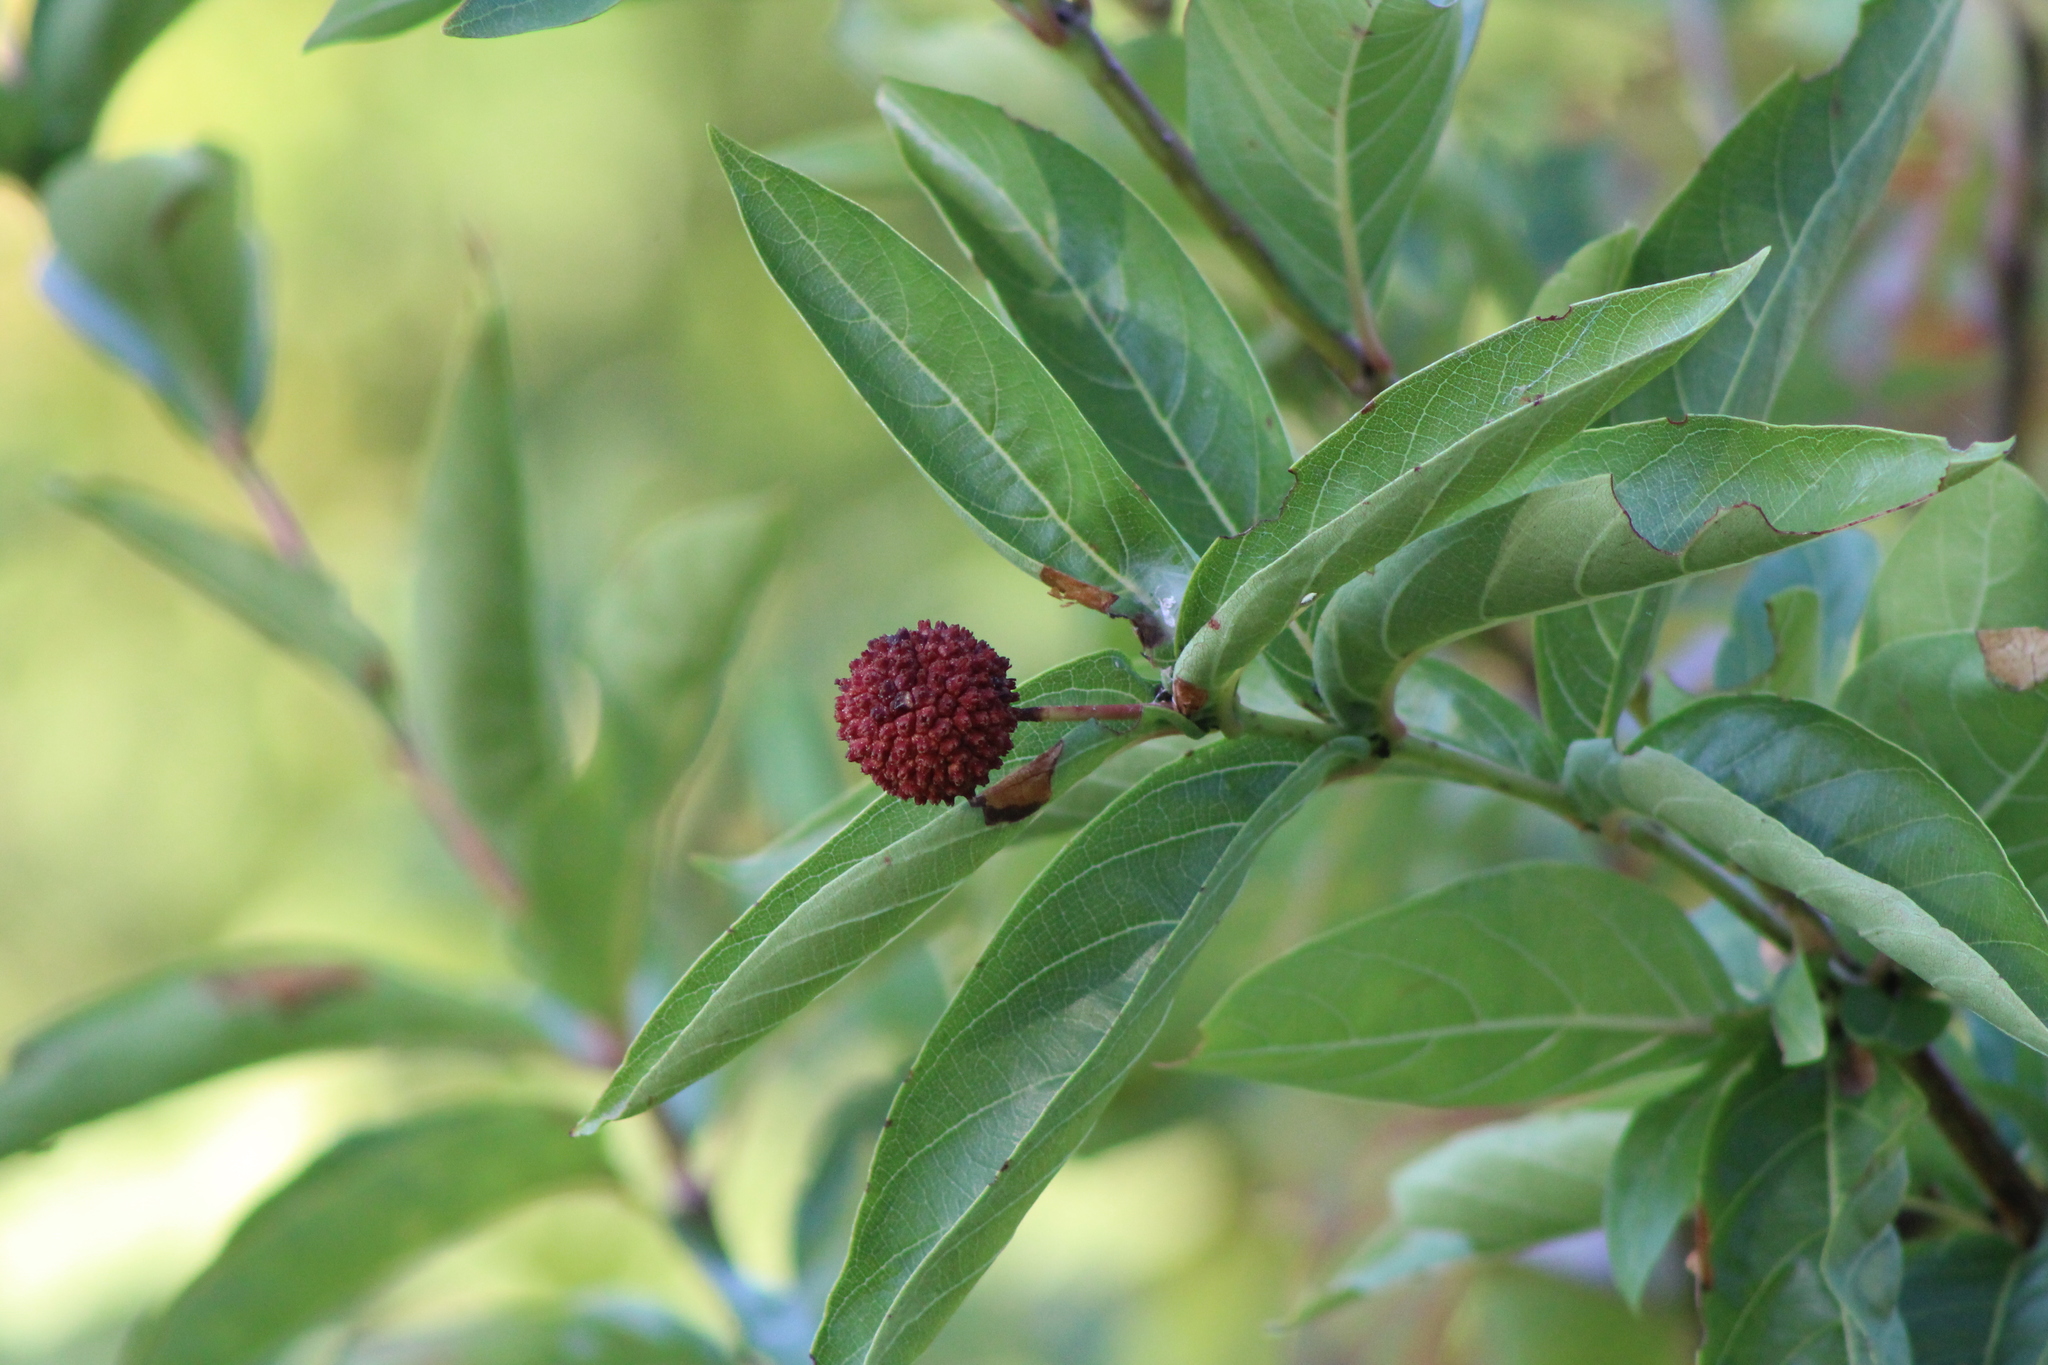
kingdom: Plantae
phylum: Tracheophyta
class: Magnoliopsida
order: Gentianales
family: Rubiaceae
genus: Cephalanthus
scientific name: Cephalanthus occidentalis
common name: Button-willow
